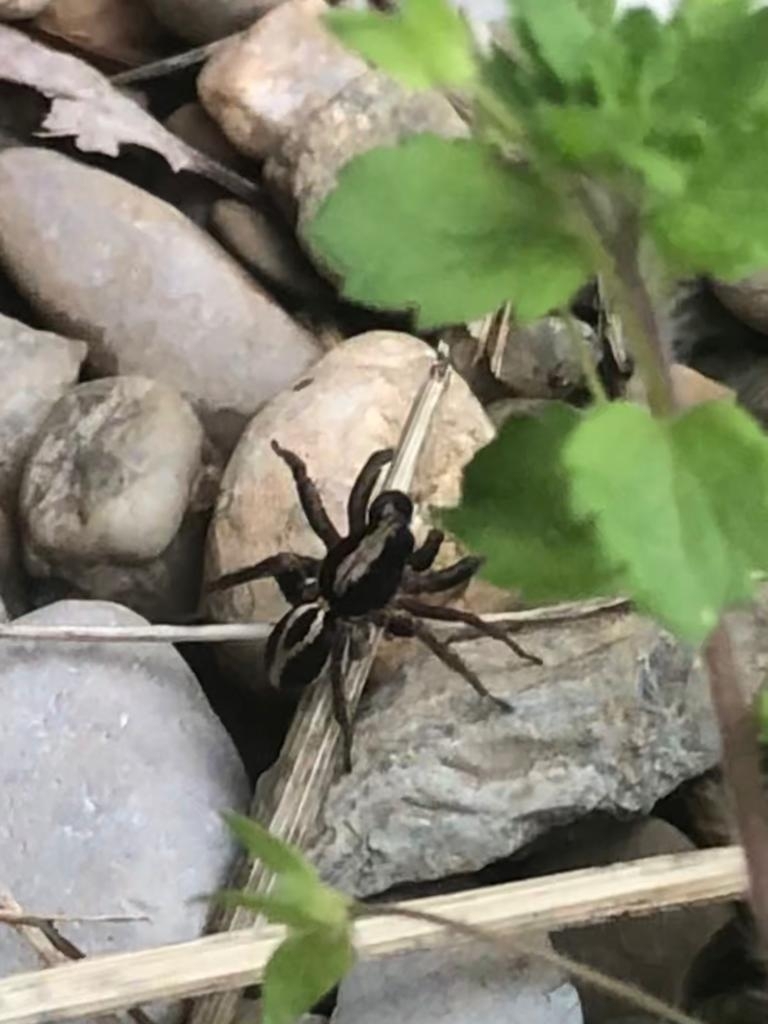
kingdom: Animalia
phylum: Arthropoda
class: Arachnida
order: Araneae
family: Lycosidae
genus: Alopecosa
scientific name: Alopecosa albofasciata
